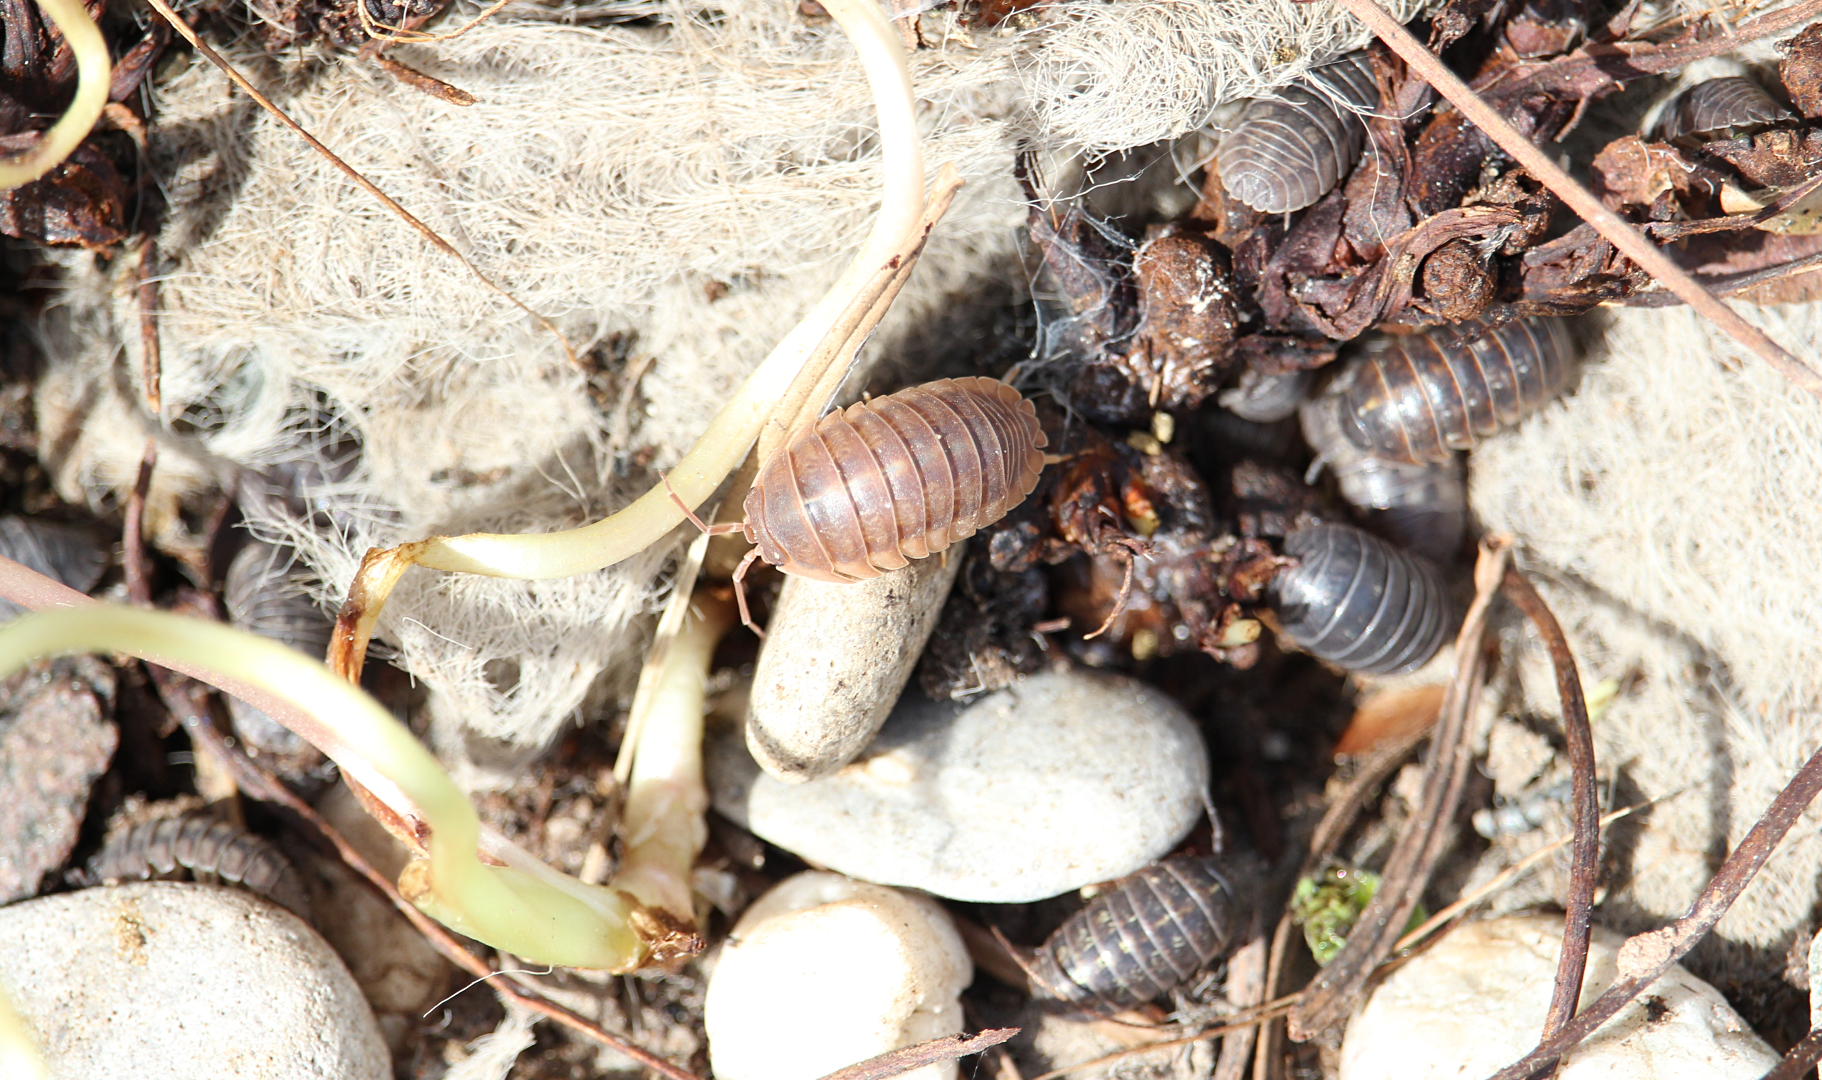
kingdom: Animalia
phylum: Arthropoda
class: Malacostraca
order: Isopoda
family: Armadillidiidae
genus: Armadillidium
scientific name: Armadillidium nasatum
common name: Isopod
